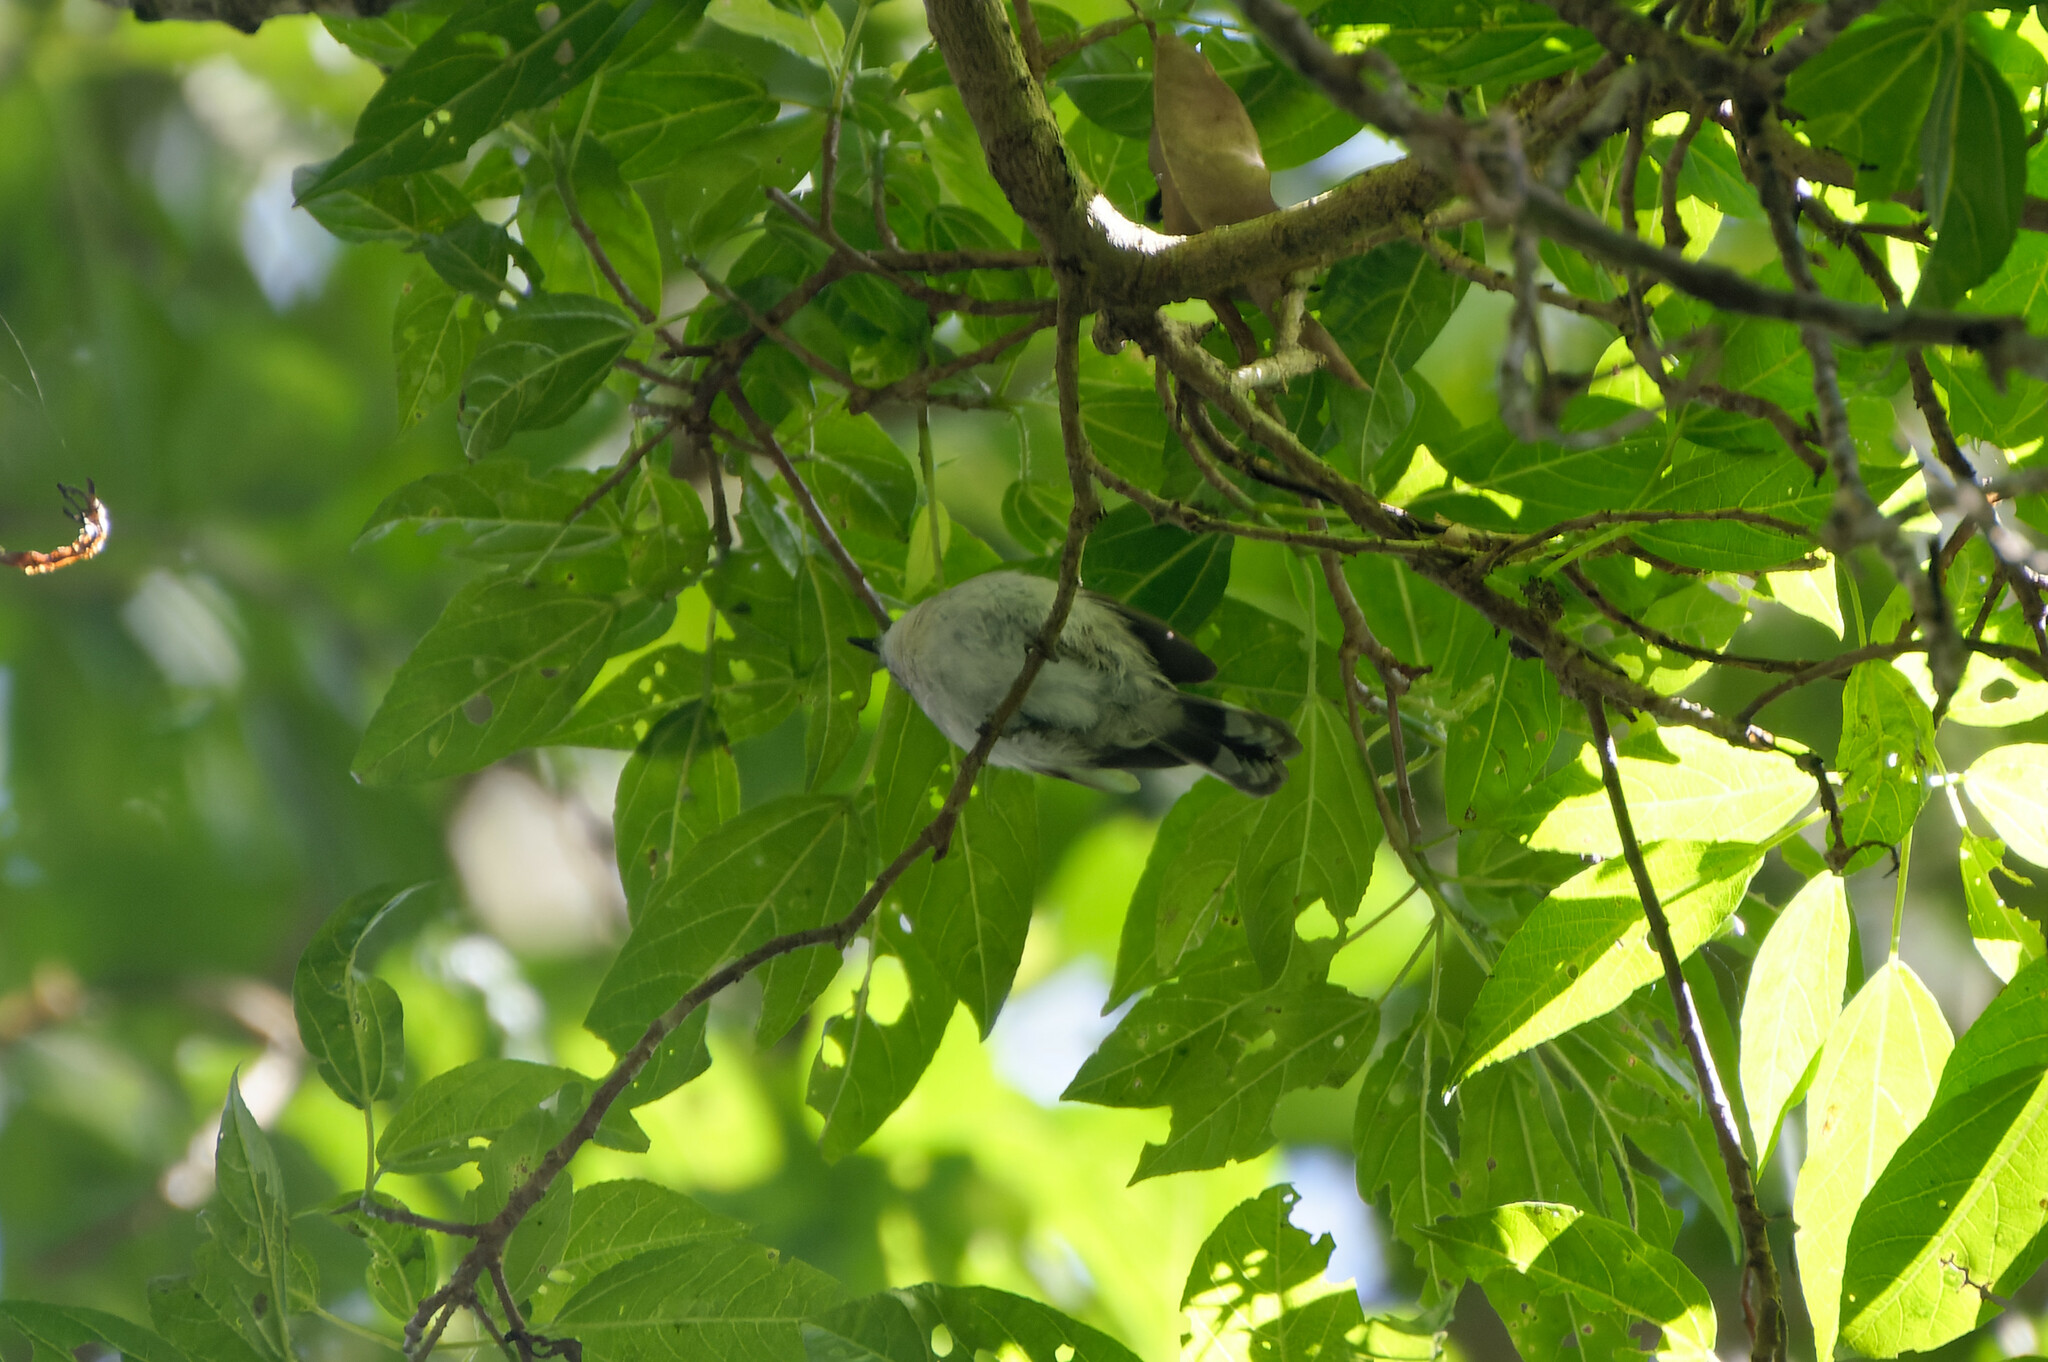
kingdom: Animalia
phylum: Chordata
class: Aves
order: Passeriformes
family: Acanthizidae
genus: Gerygone
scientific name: Gerygone mouki
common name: Brown gerygone
